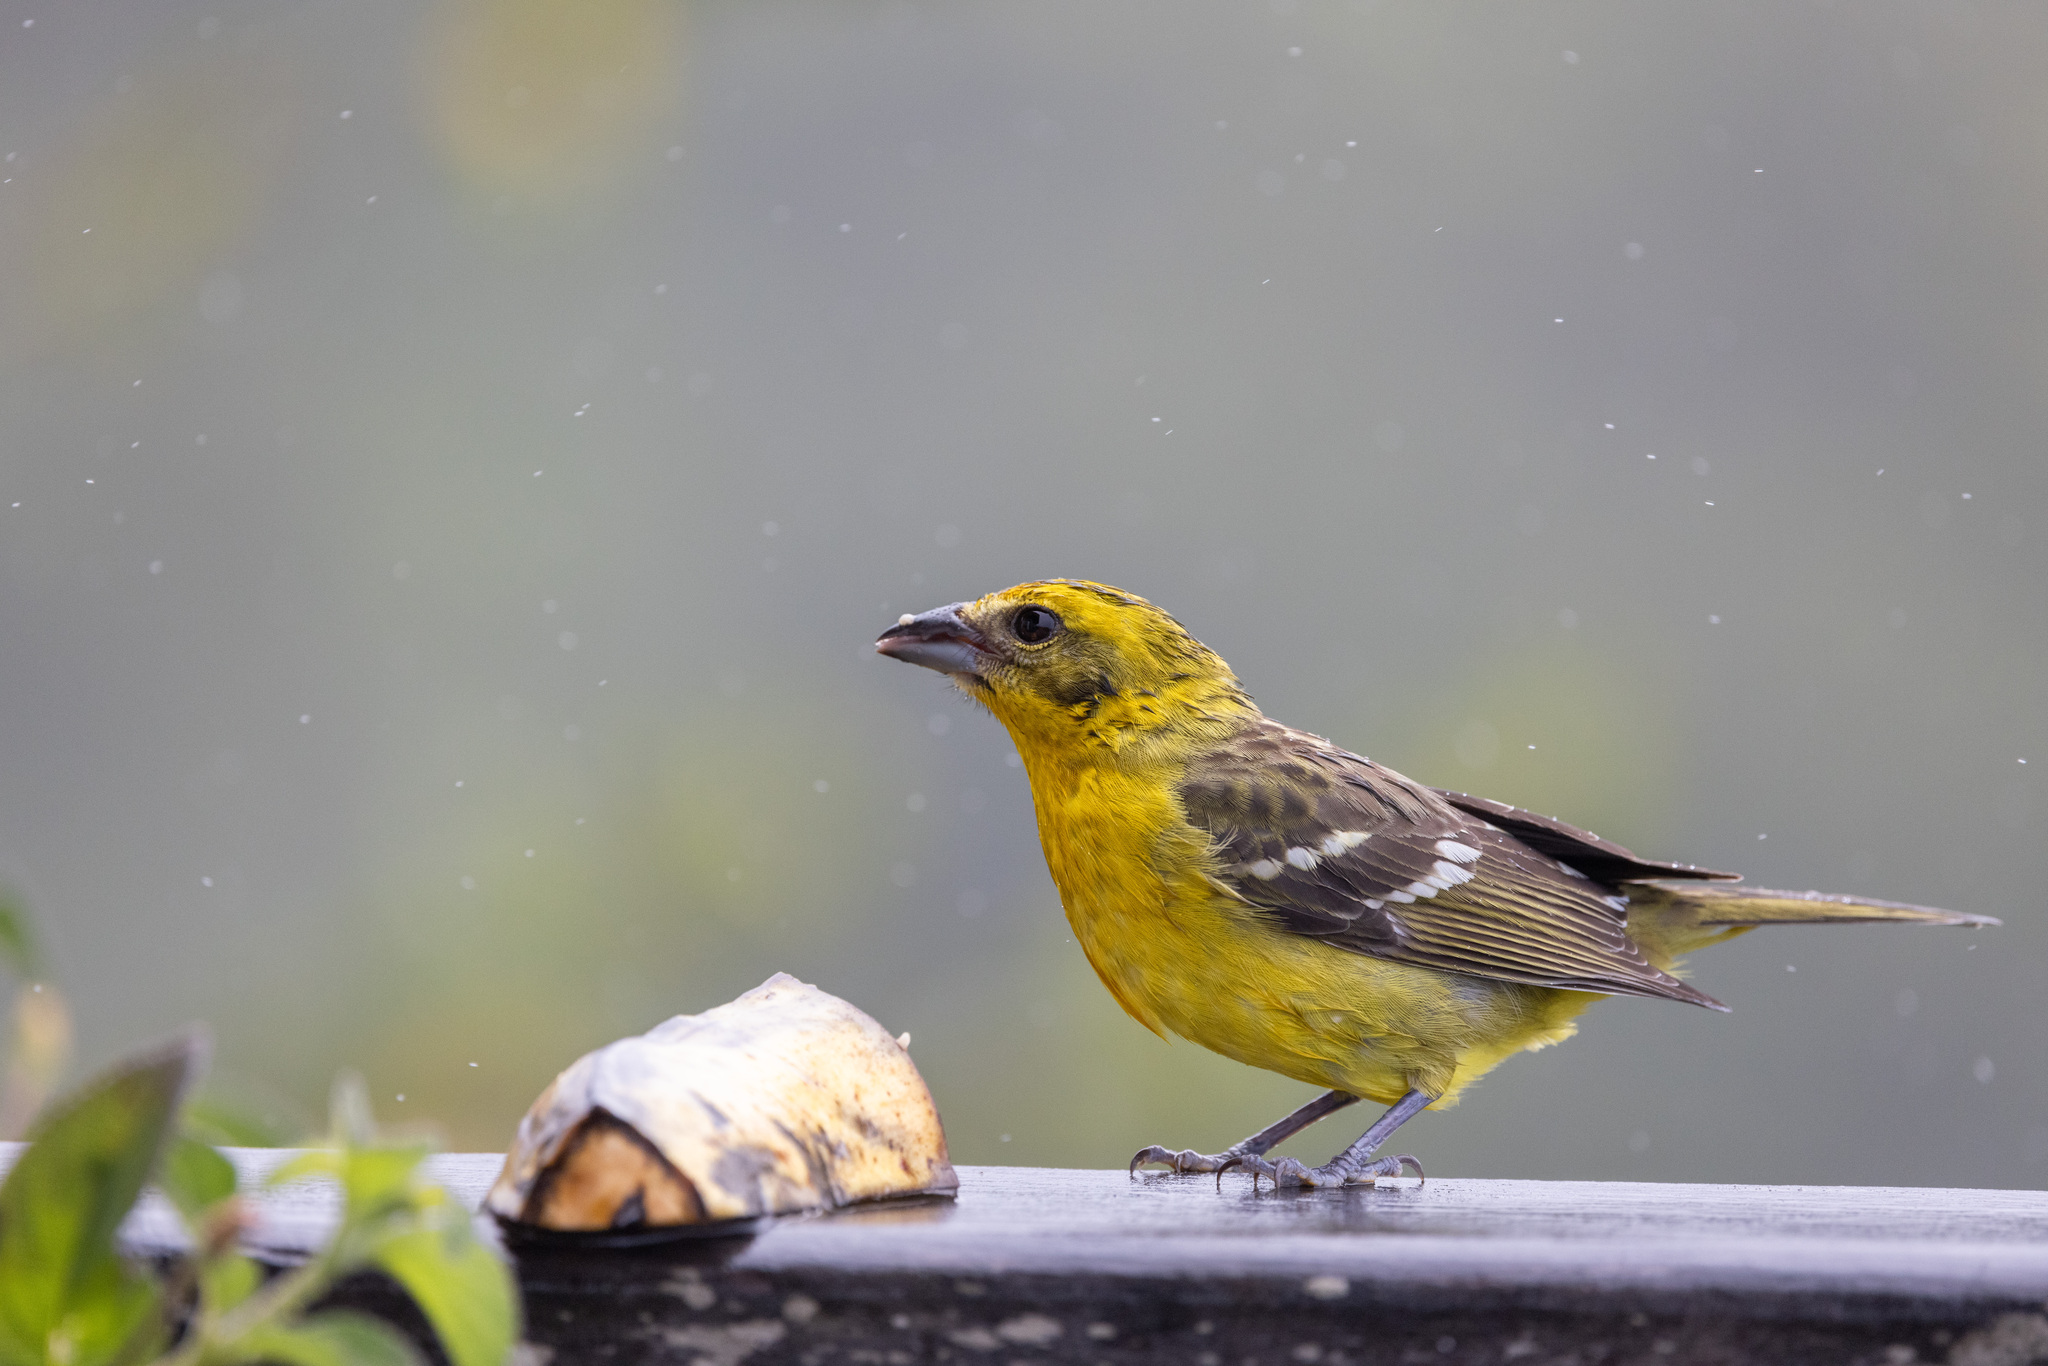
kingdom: Animalia
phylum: Chordata
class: Aves
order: Passeriformes
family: Cardinalidae
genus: Piranga
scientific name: Piranga bidentata
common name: Flame-colored tanager
